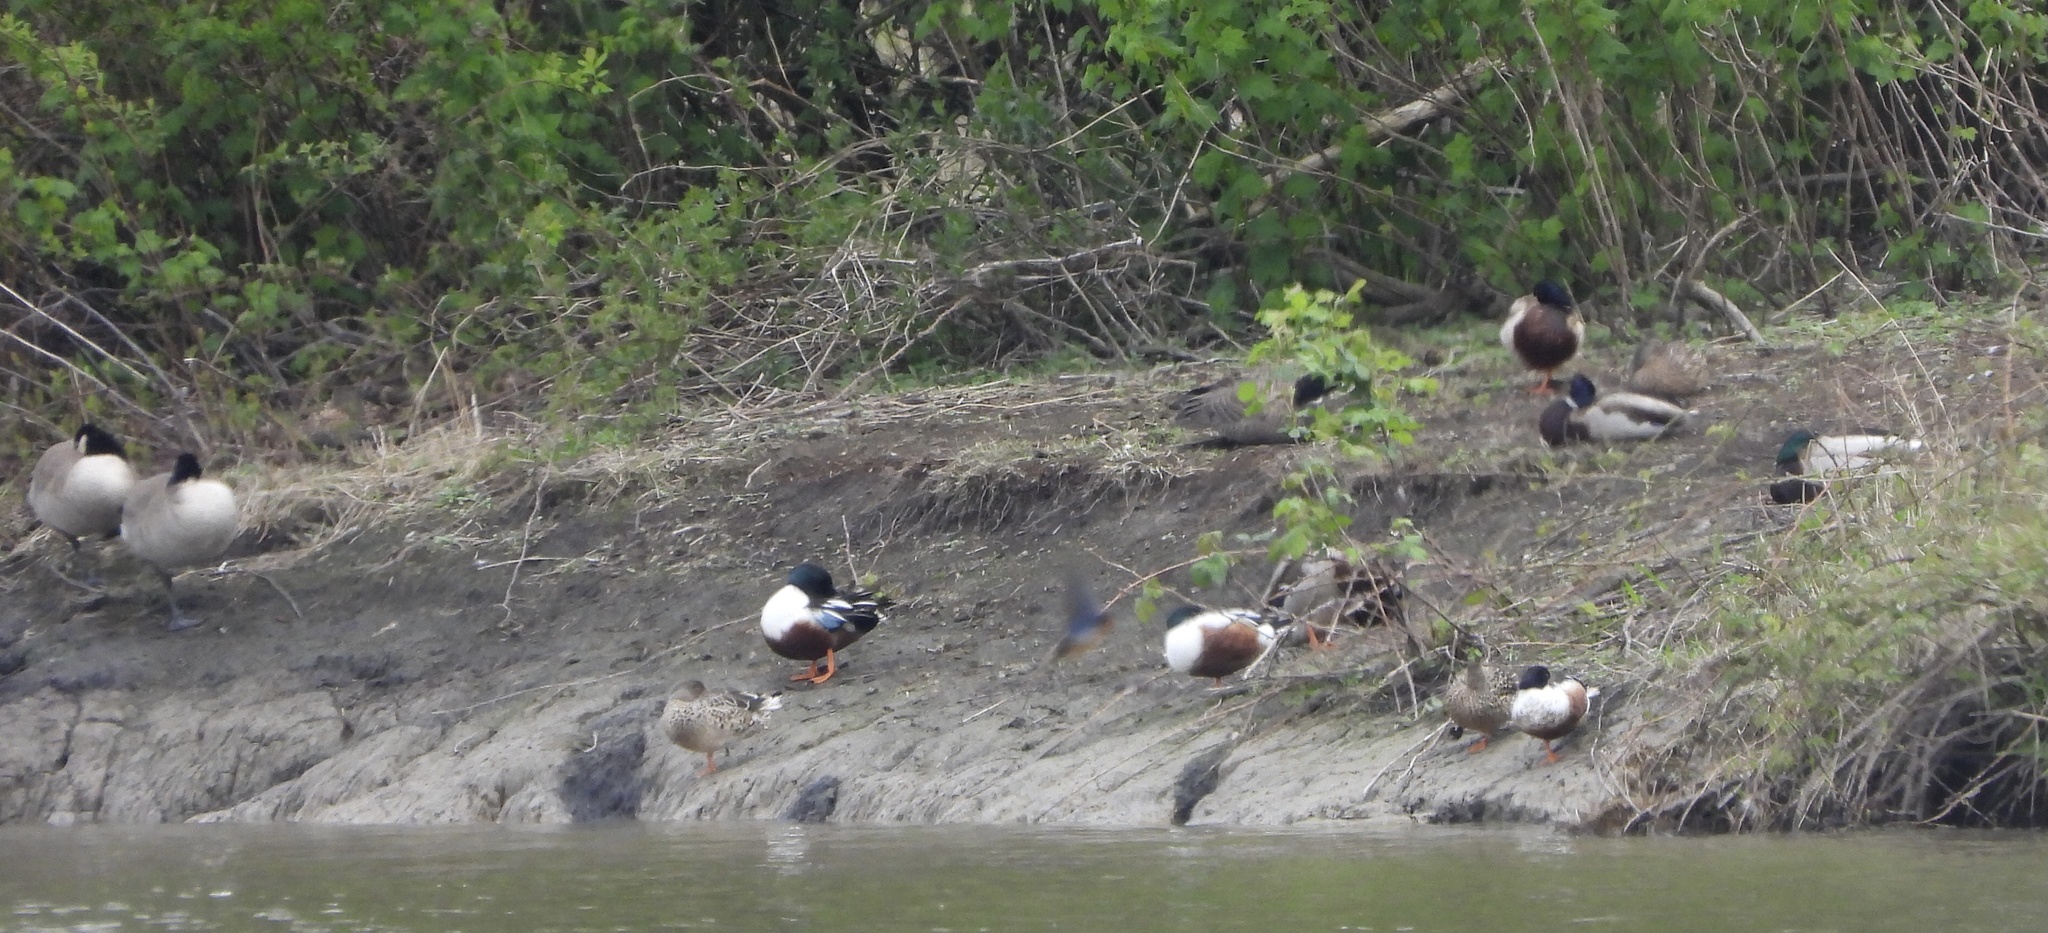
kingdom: Animalia
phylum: Chordata
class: Aves
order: Anseriformes
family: Anatidae
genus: Spatula
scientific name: Spatula clypeata
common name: Northern shoveler
